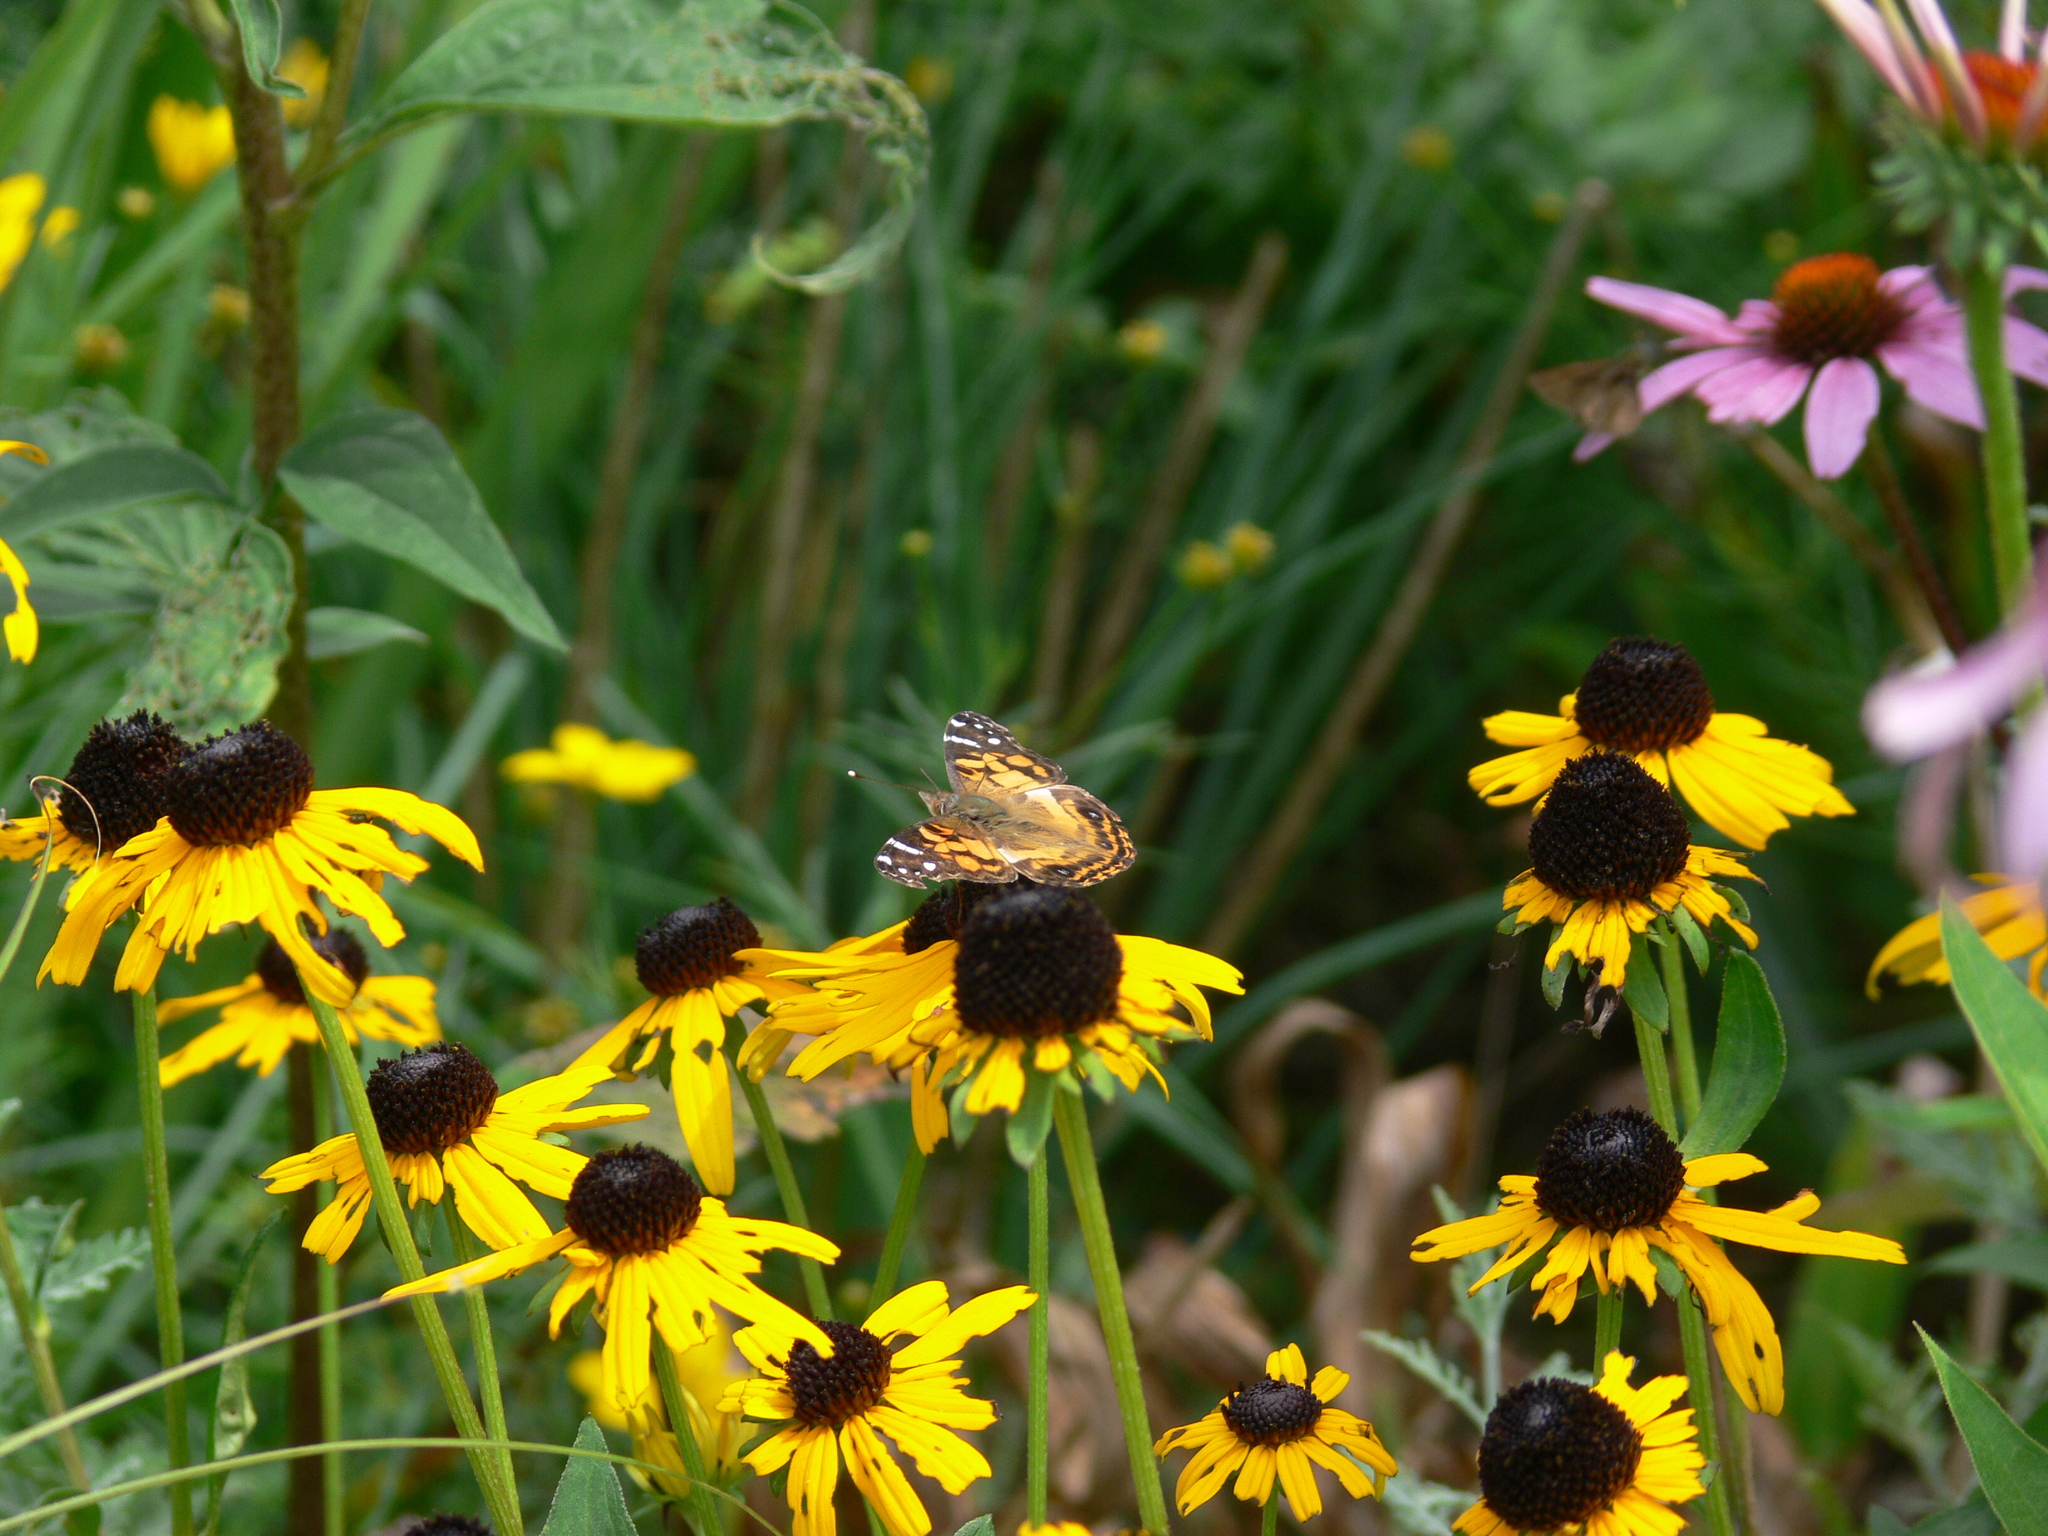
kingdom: Animalia
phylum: Arthropoda
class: Insecta
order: Lepidoptera
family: Nymphalidae
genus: Vanessa
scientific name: Vanessa virginiensis
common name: American lady
